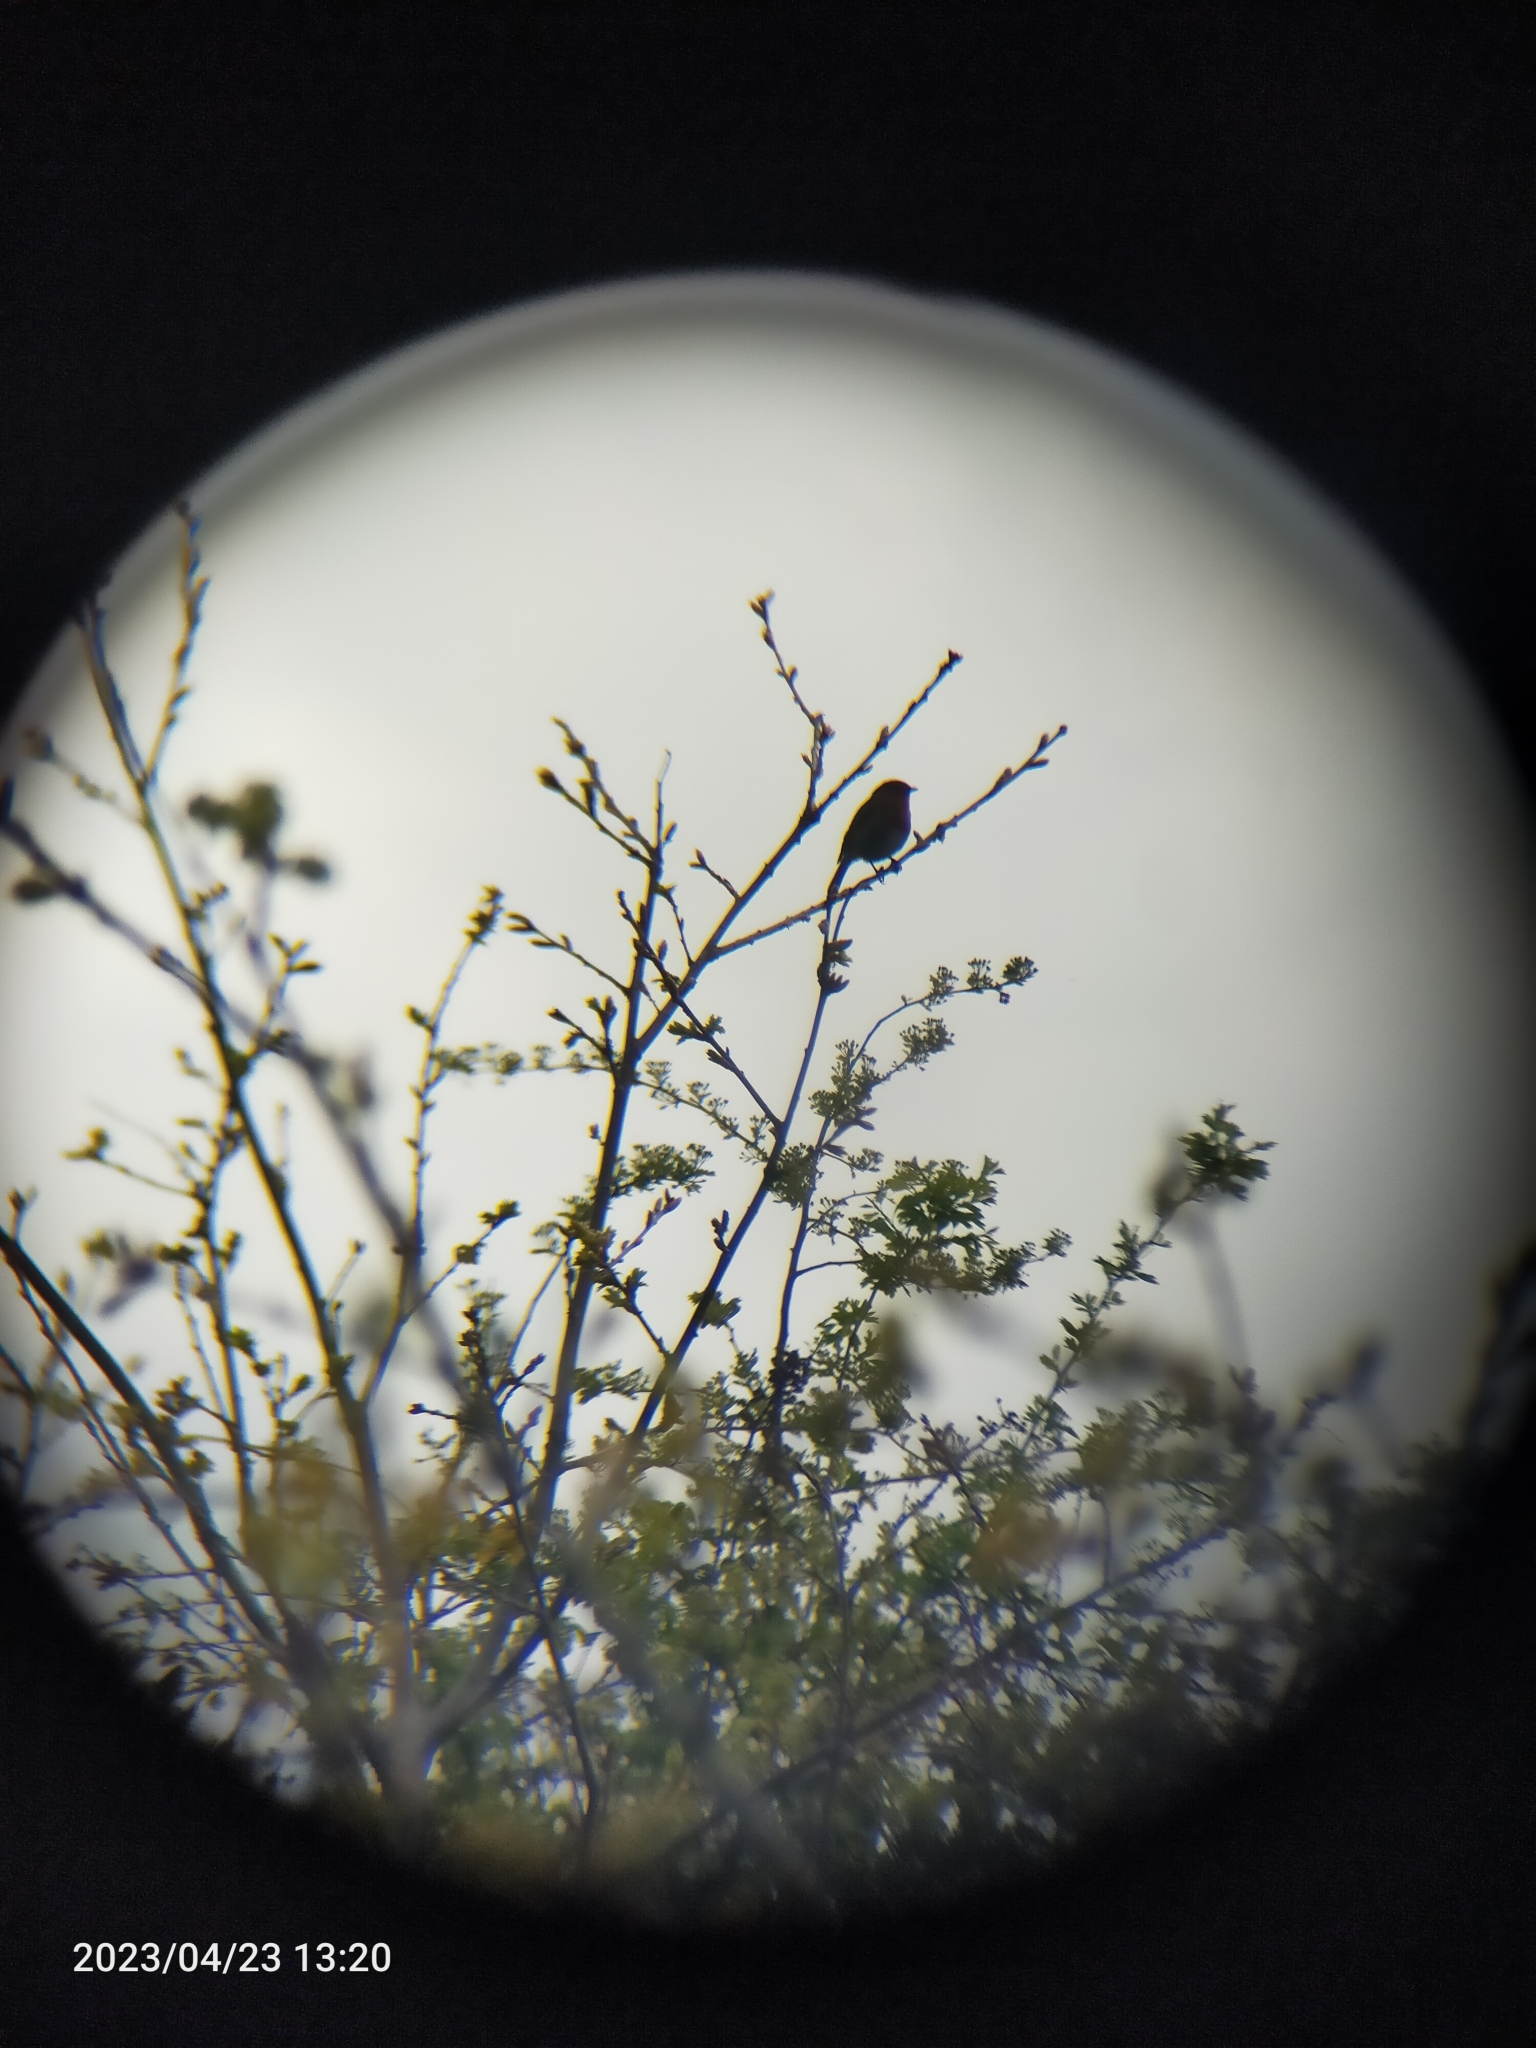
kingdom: Animalia
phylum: Chordata
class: Aves
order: Passeriformes
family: Muscicapidae
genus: Erithacus
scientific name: Erithacus rubecula
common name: European robin
